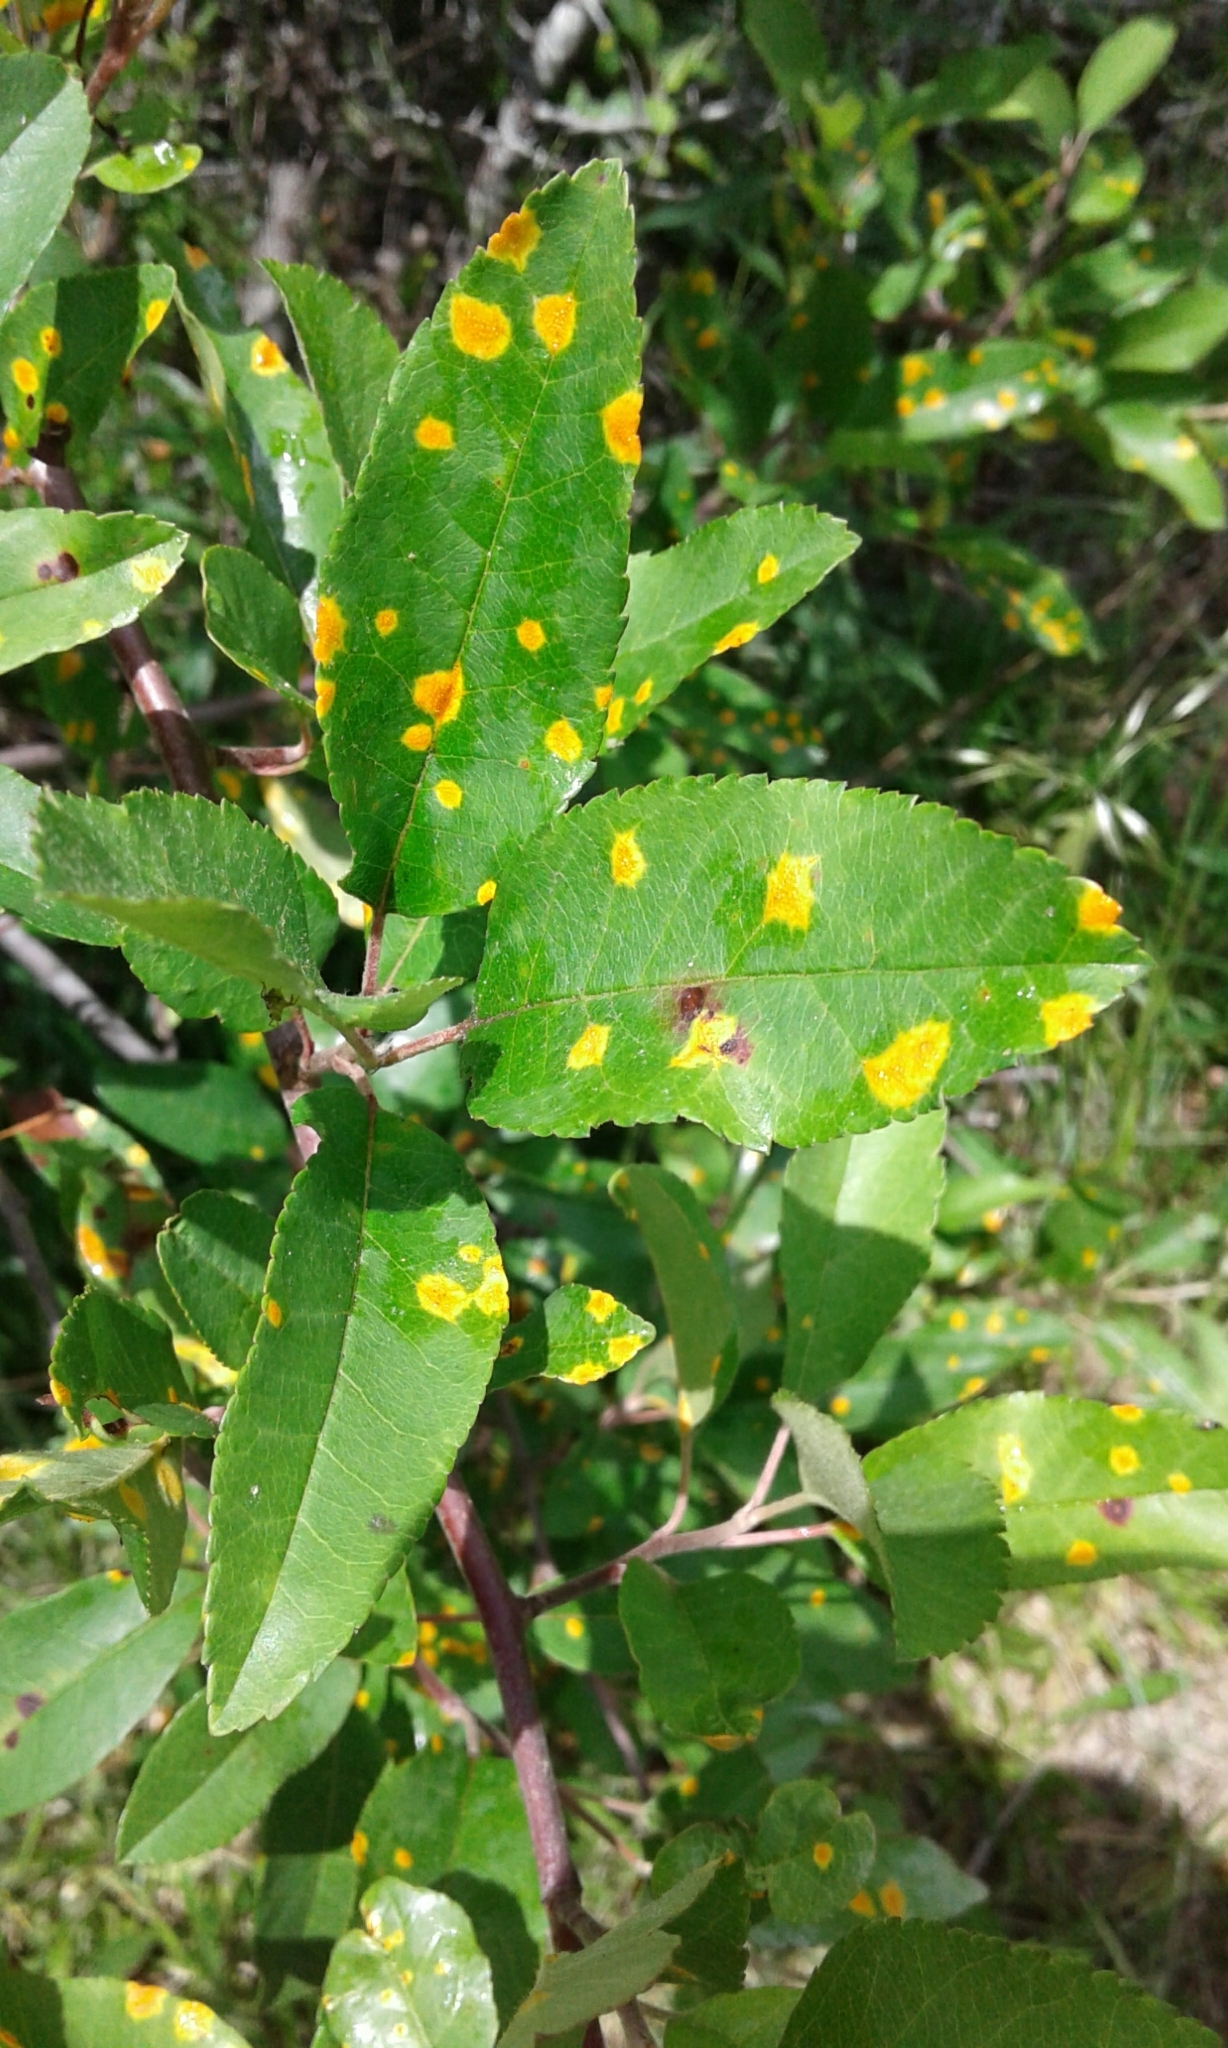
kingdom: Plantae
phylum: Tracheophyta
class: Magnoliopsida
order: Rosales
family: Rosaceae
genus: Malus
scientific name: Malus angustifolia
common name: Southern crab apple
